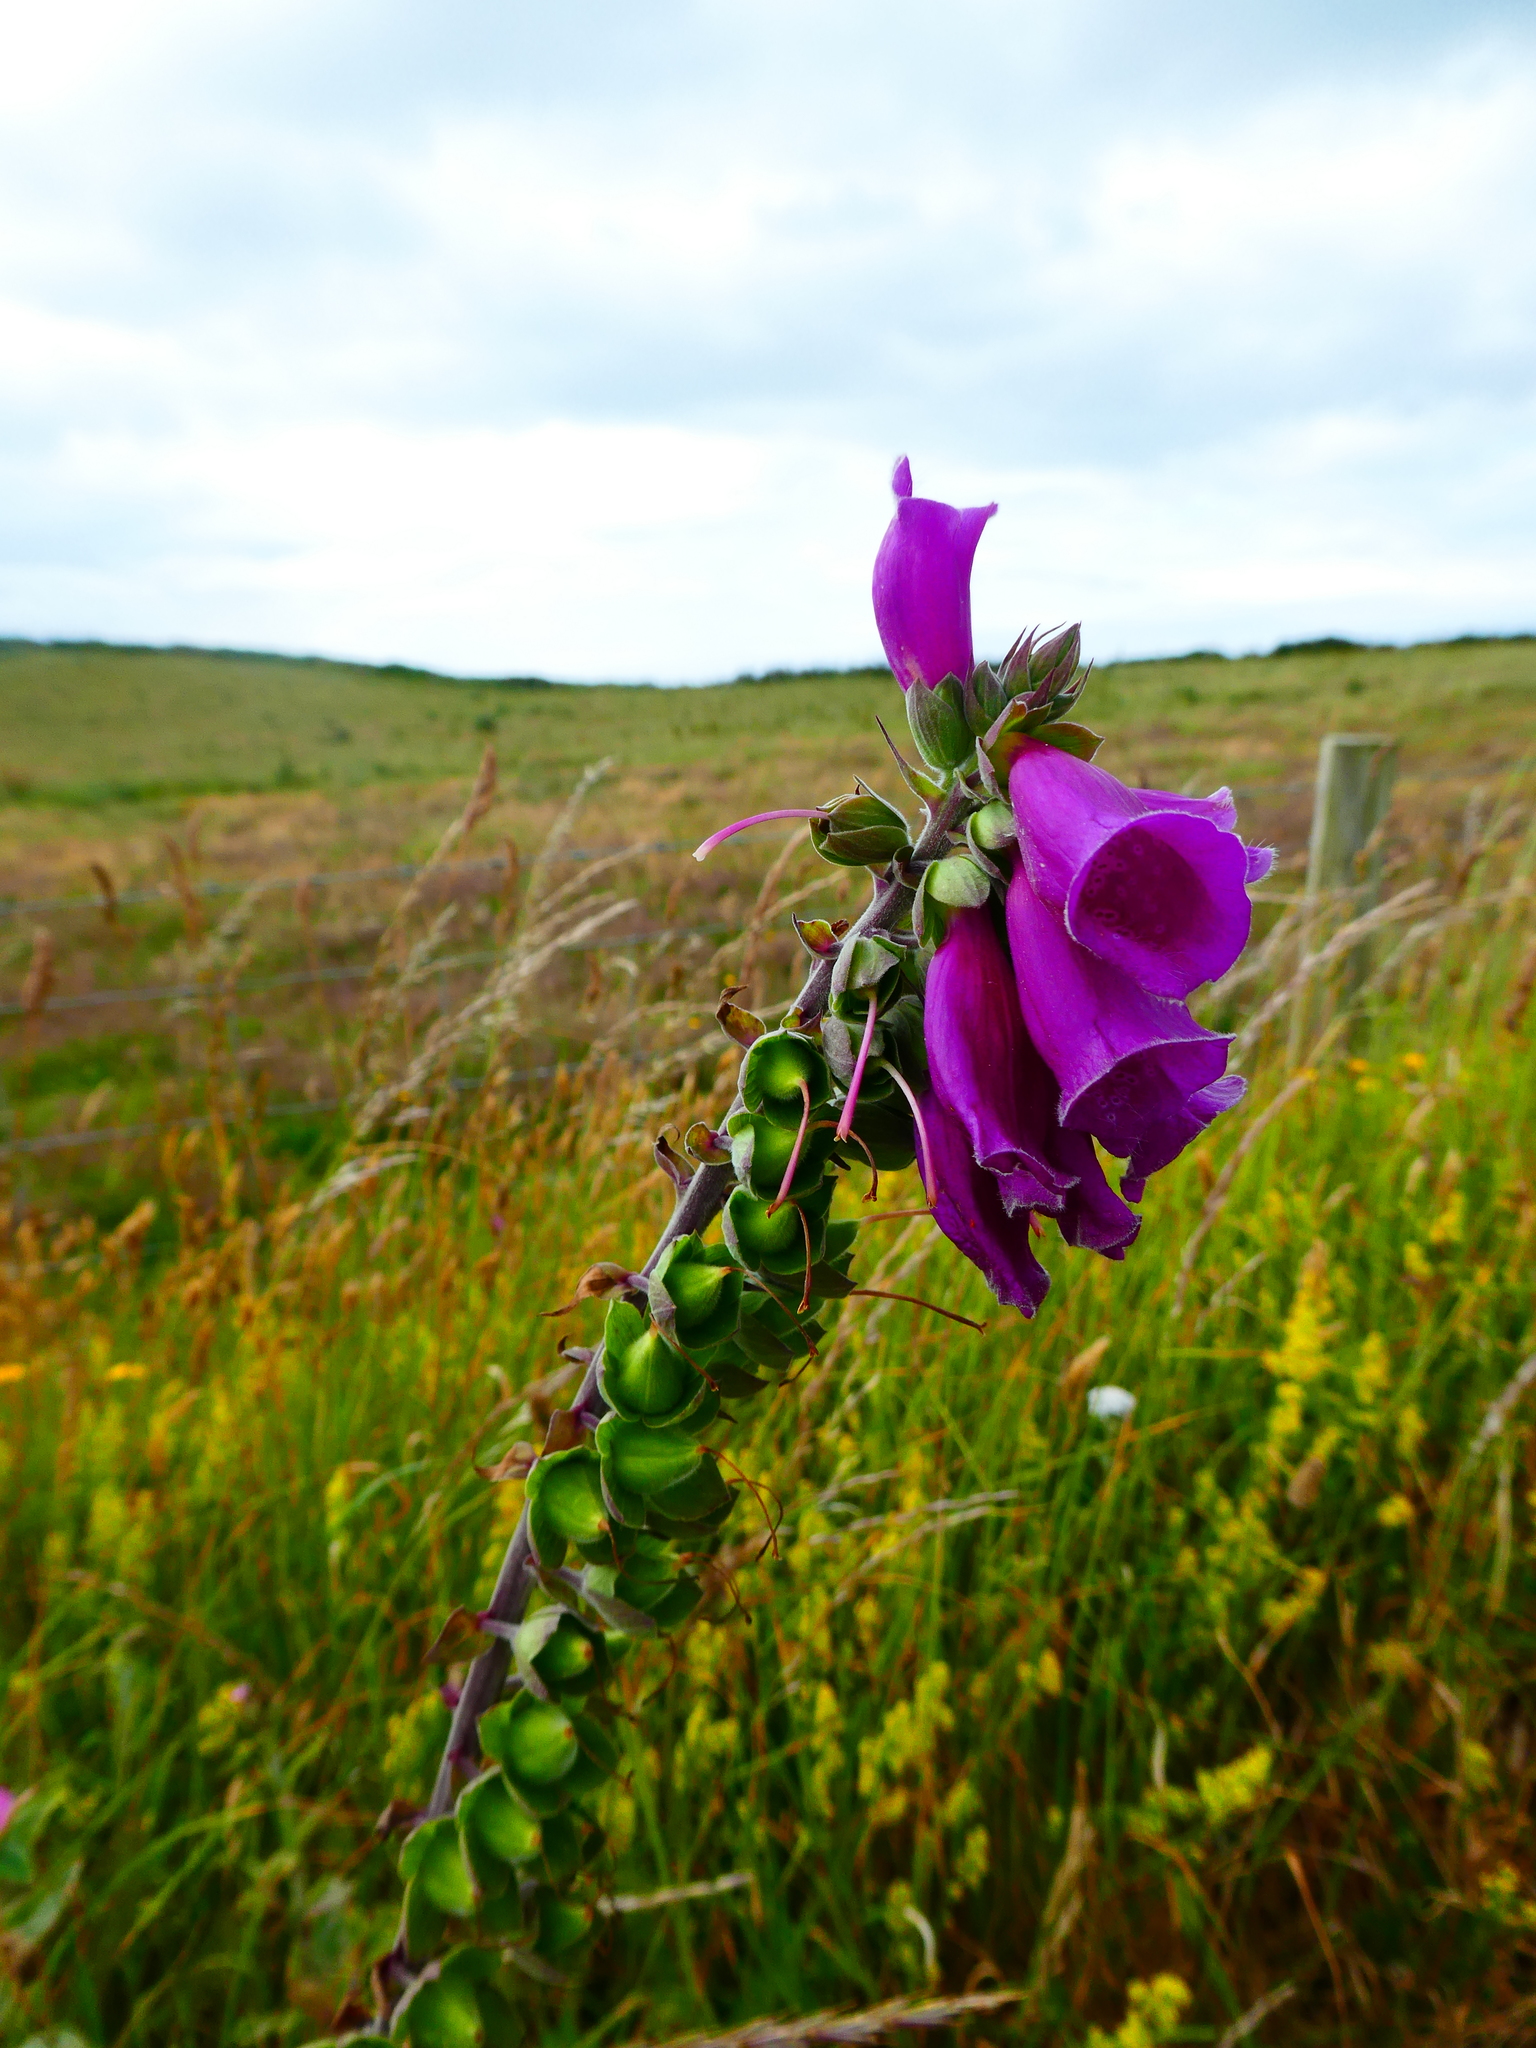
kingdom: Plantae
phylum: Tracheophyta
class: Magnoliopsida
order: Lamiales
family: Plantaginaceae
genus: Digitalis
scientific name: Digitalis purpurea
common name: Foxglove
